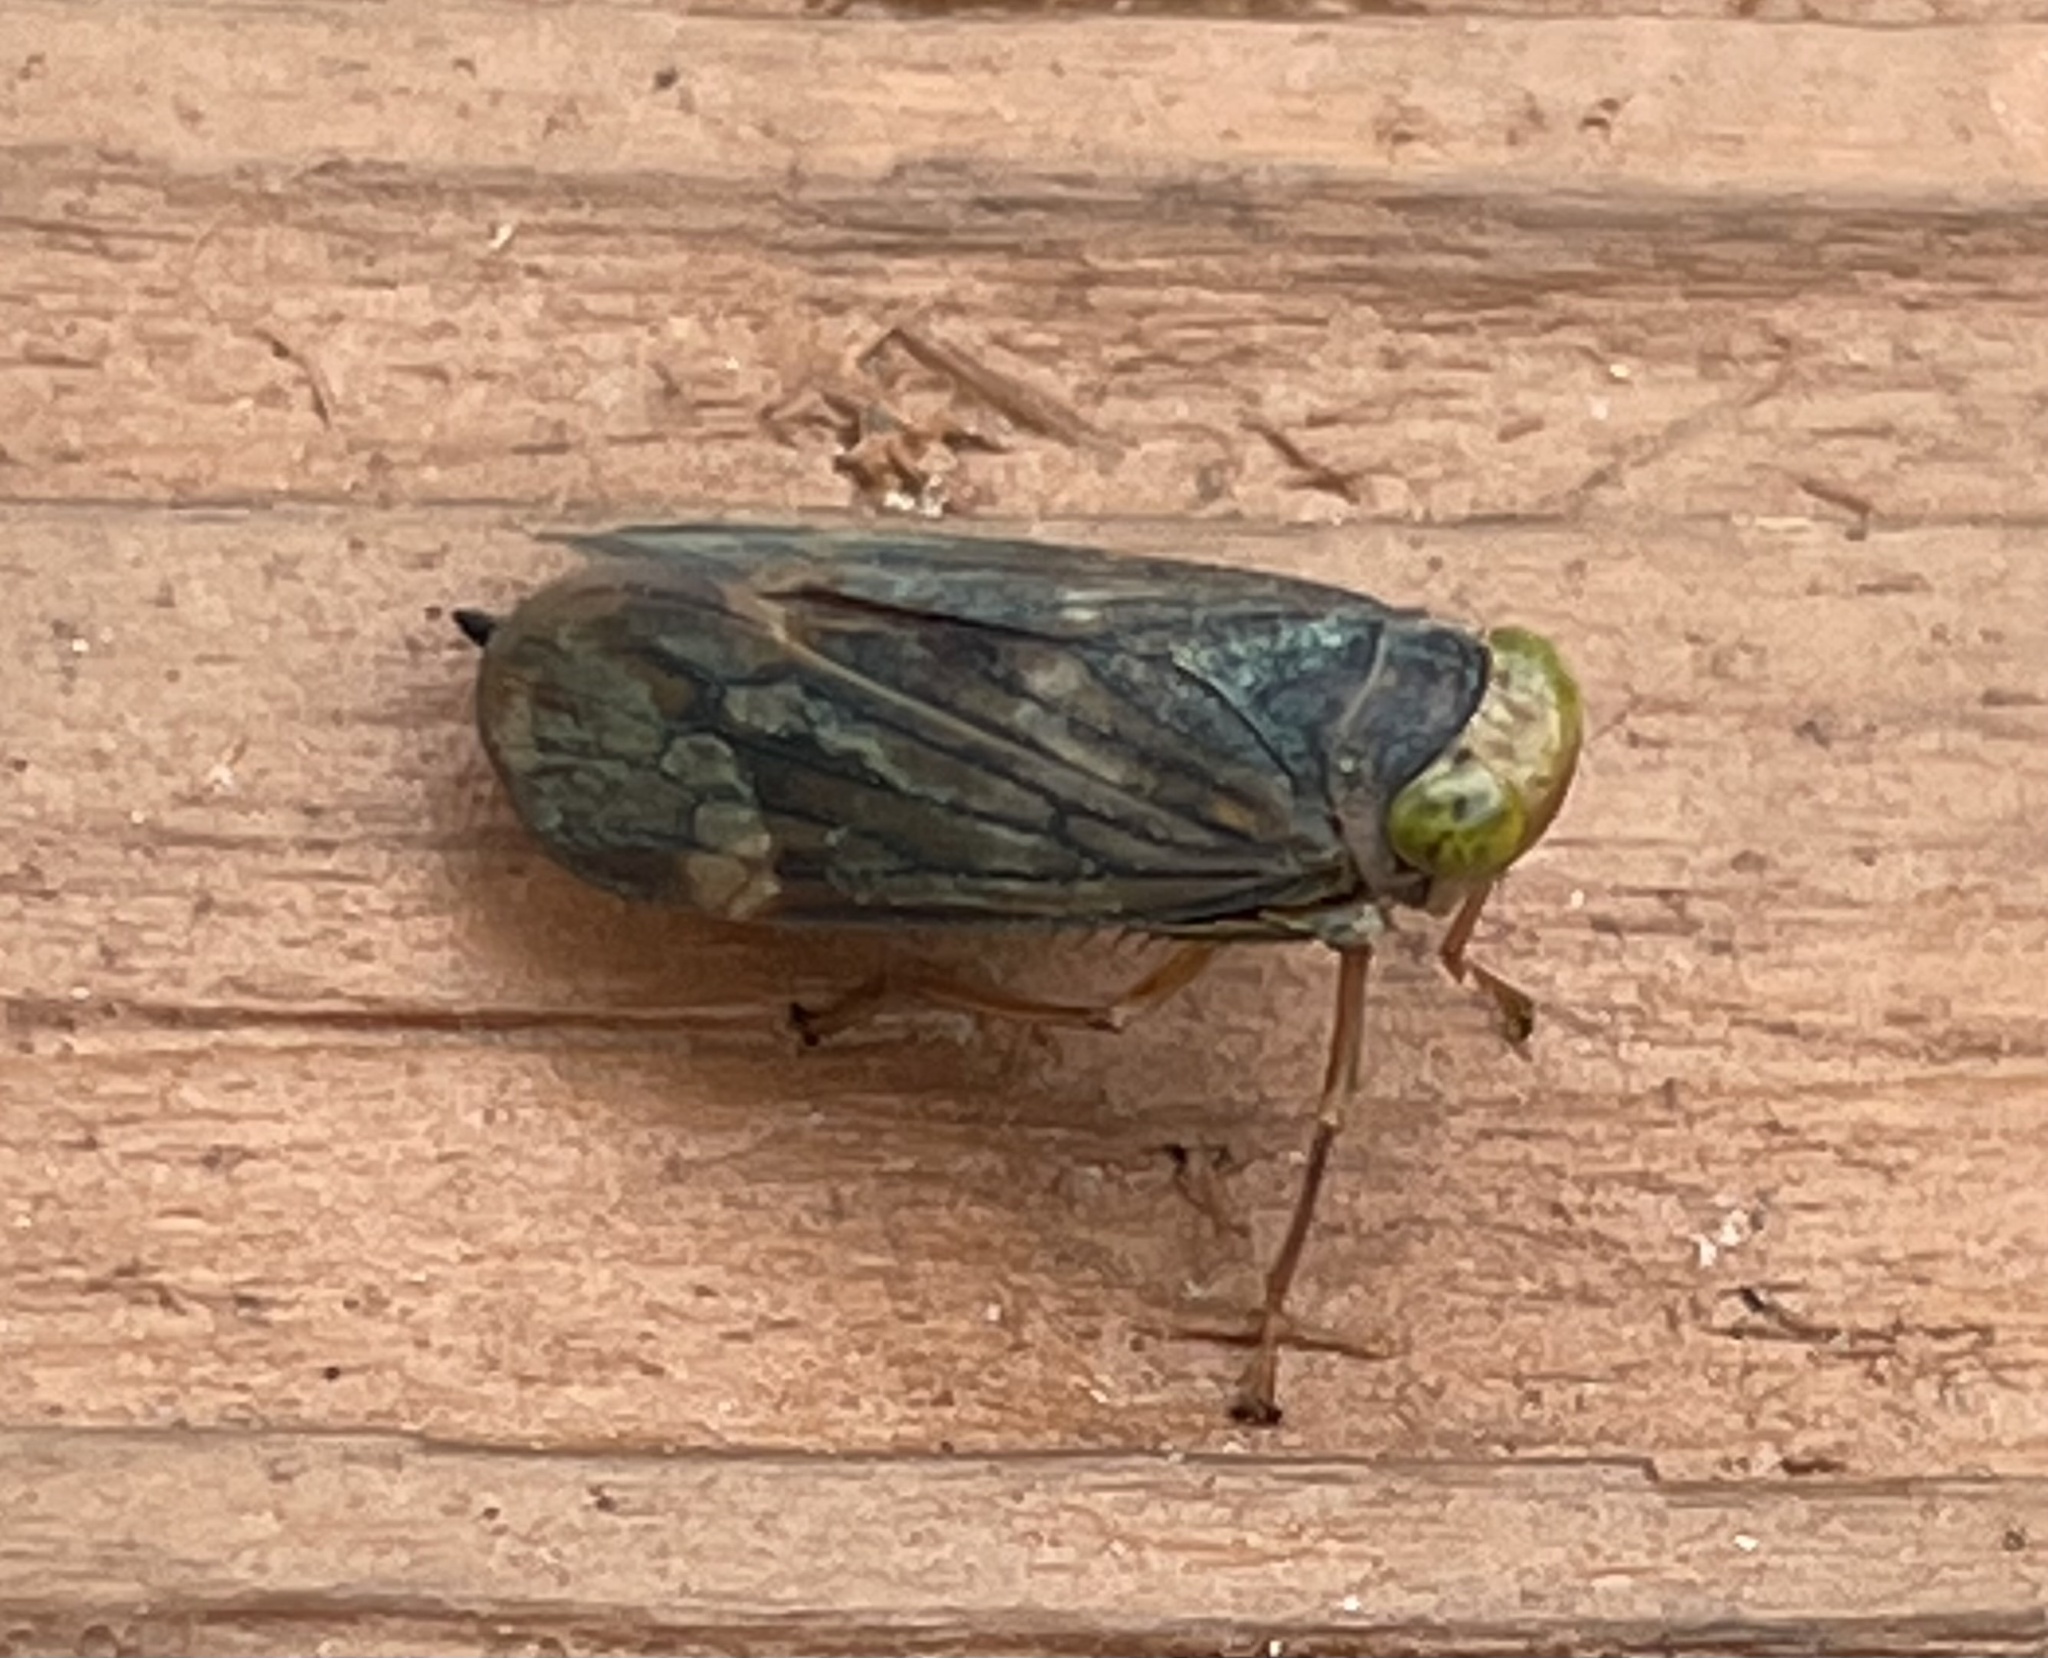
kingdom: Animalia
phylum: Arthropoda
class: Insecta
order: Hemiptera
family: Cicadellidae
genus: Jikradia
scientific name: Jikradia olitoria
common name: Coppery leafhopper
